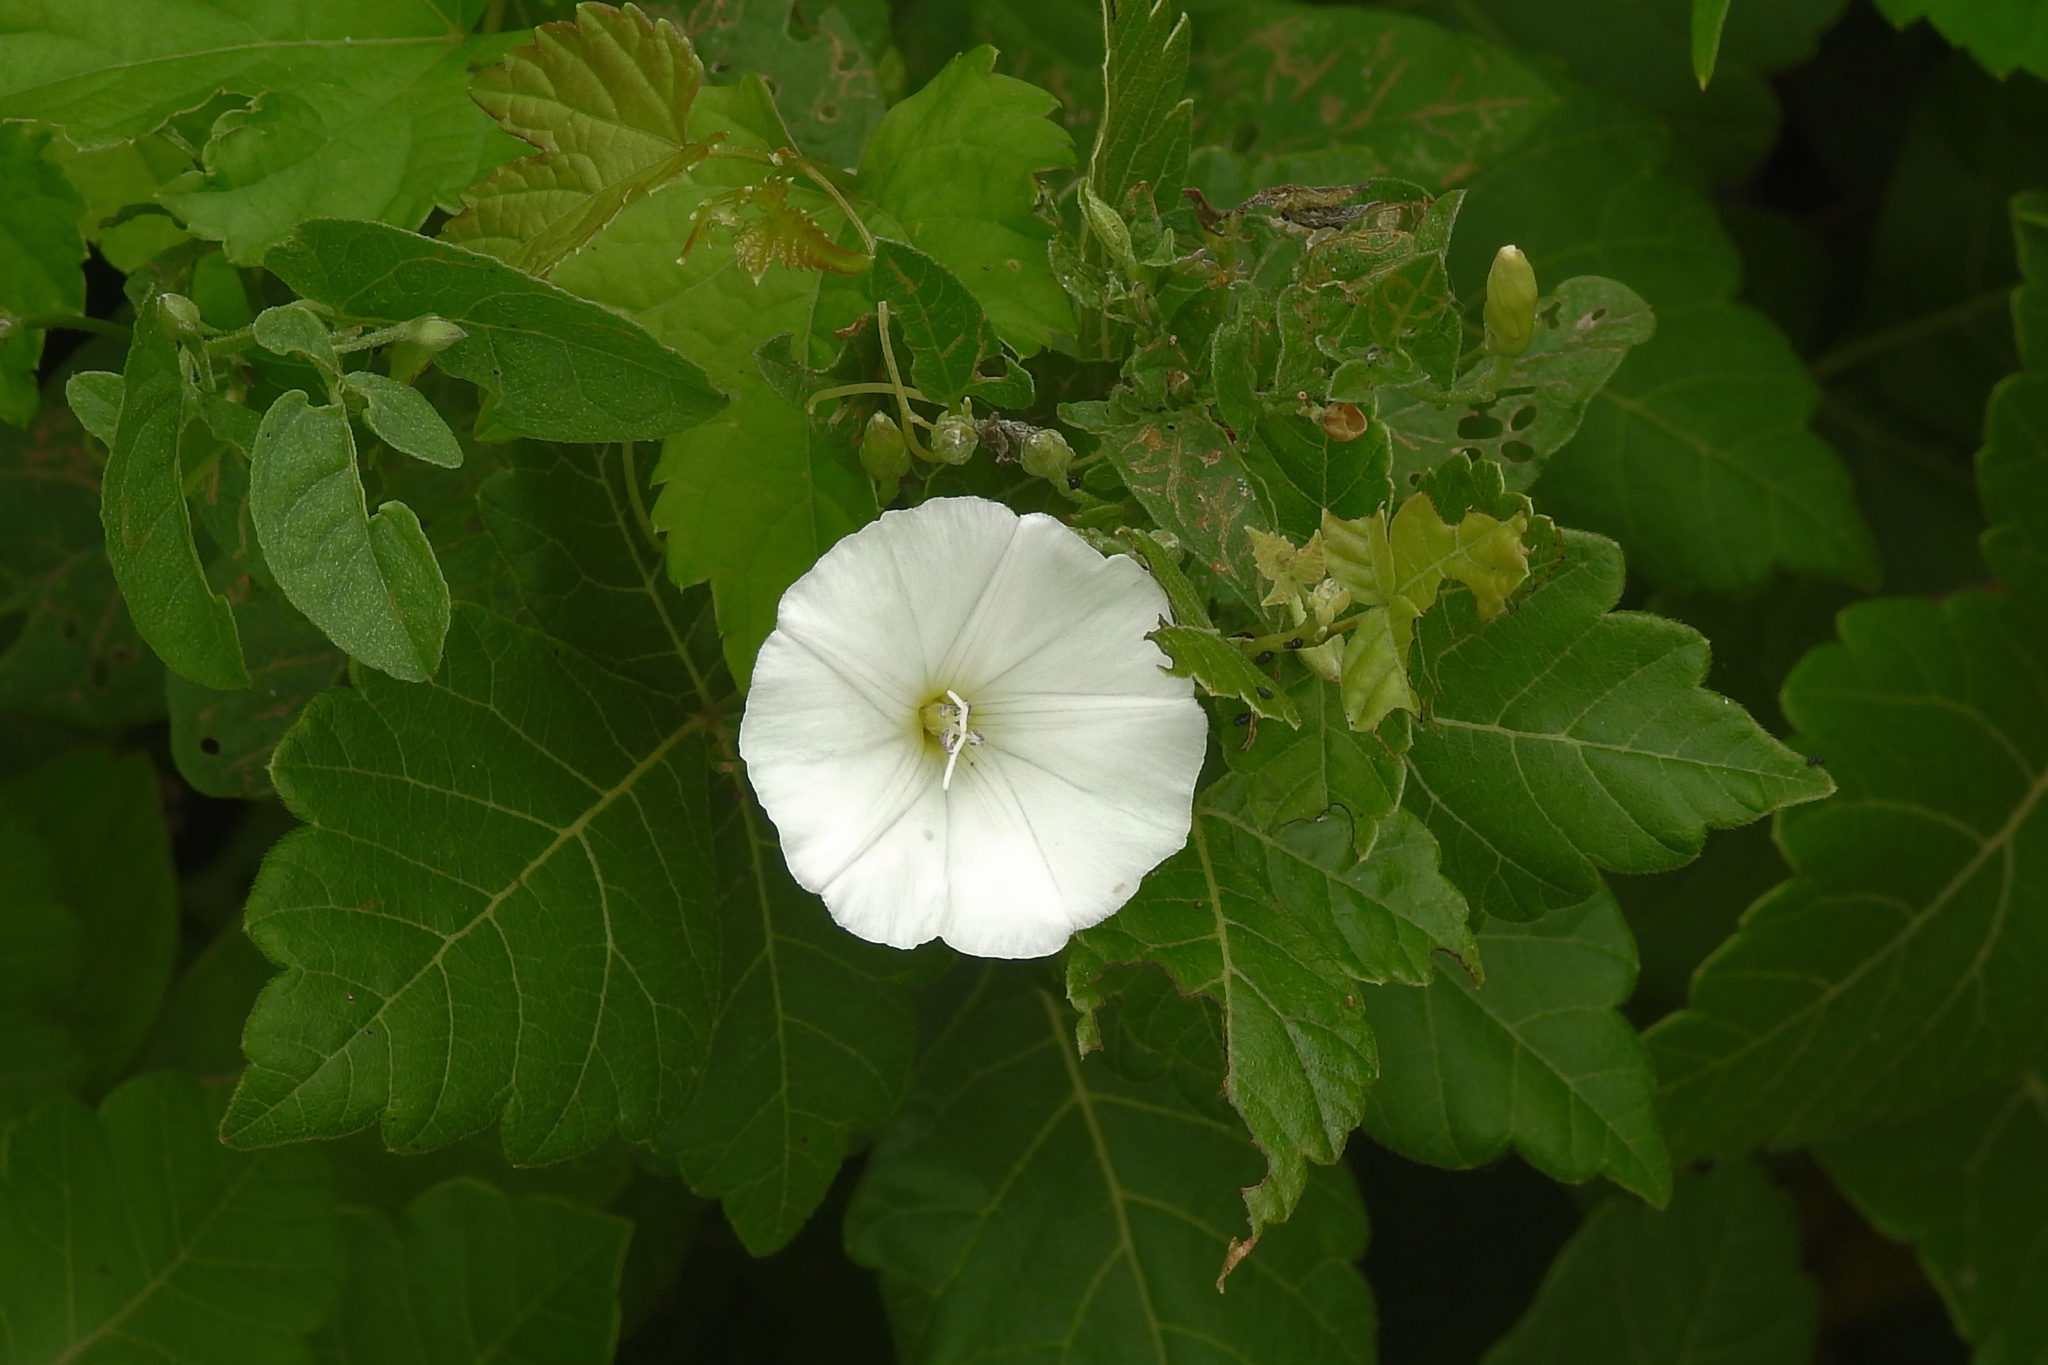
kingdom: Plantae
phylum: Tracheophyta
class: Magnoliopsida
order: Solanales
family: Convolvulaceae
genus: Convolvulus
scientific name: Convolvulus arvensis
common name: Field bindweed
